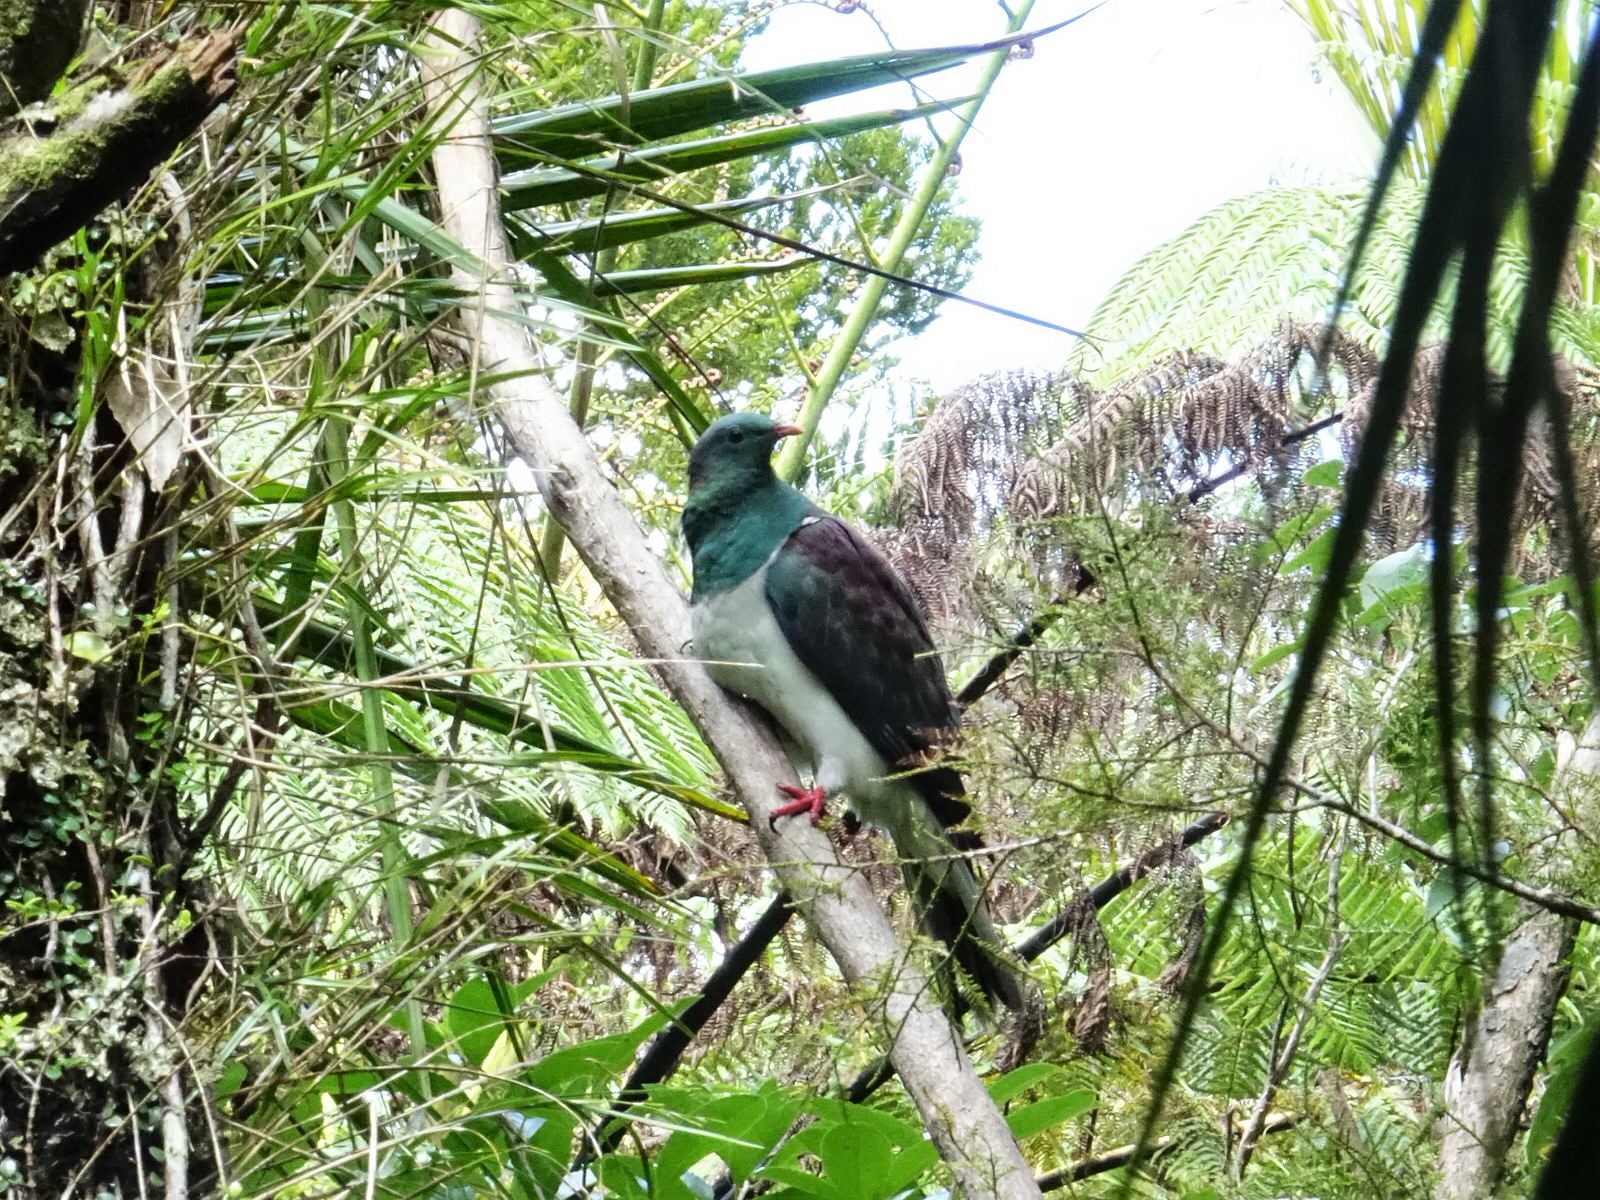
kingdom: Animalia
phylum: Chordata
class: Aves
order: Columbiformes
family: Columbidae
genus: Hemiphaga
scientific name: Hemiphaga novaeseelandiae
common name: New zealand pigeon
